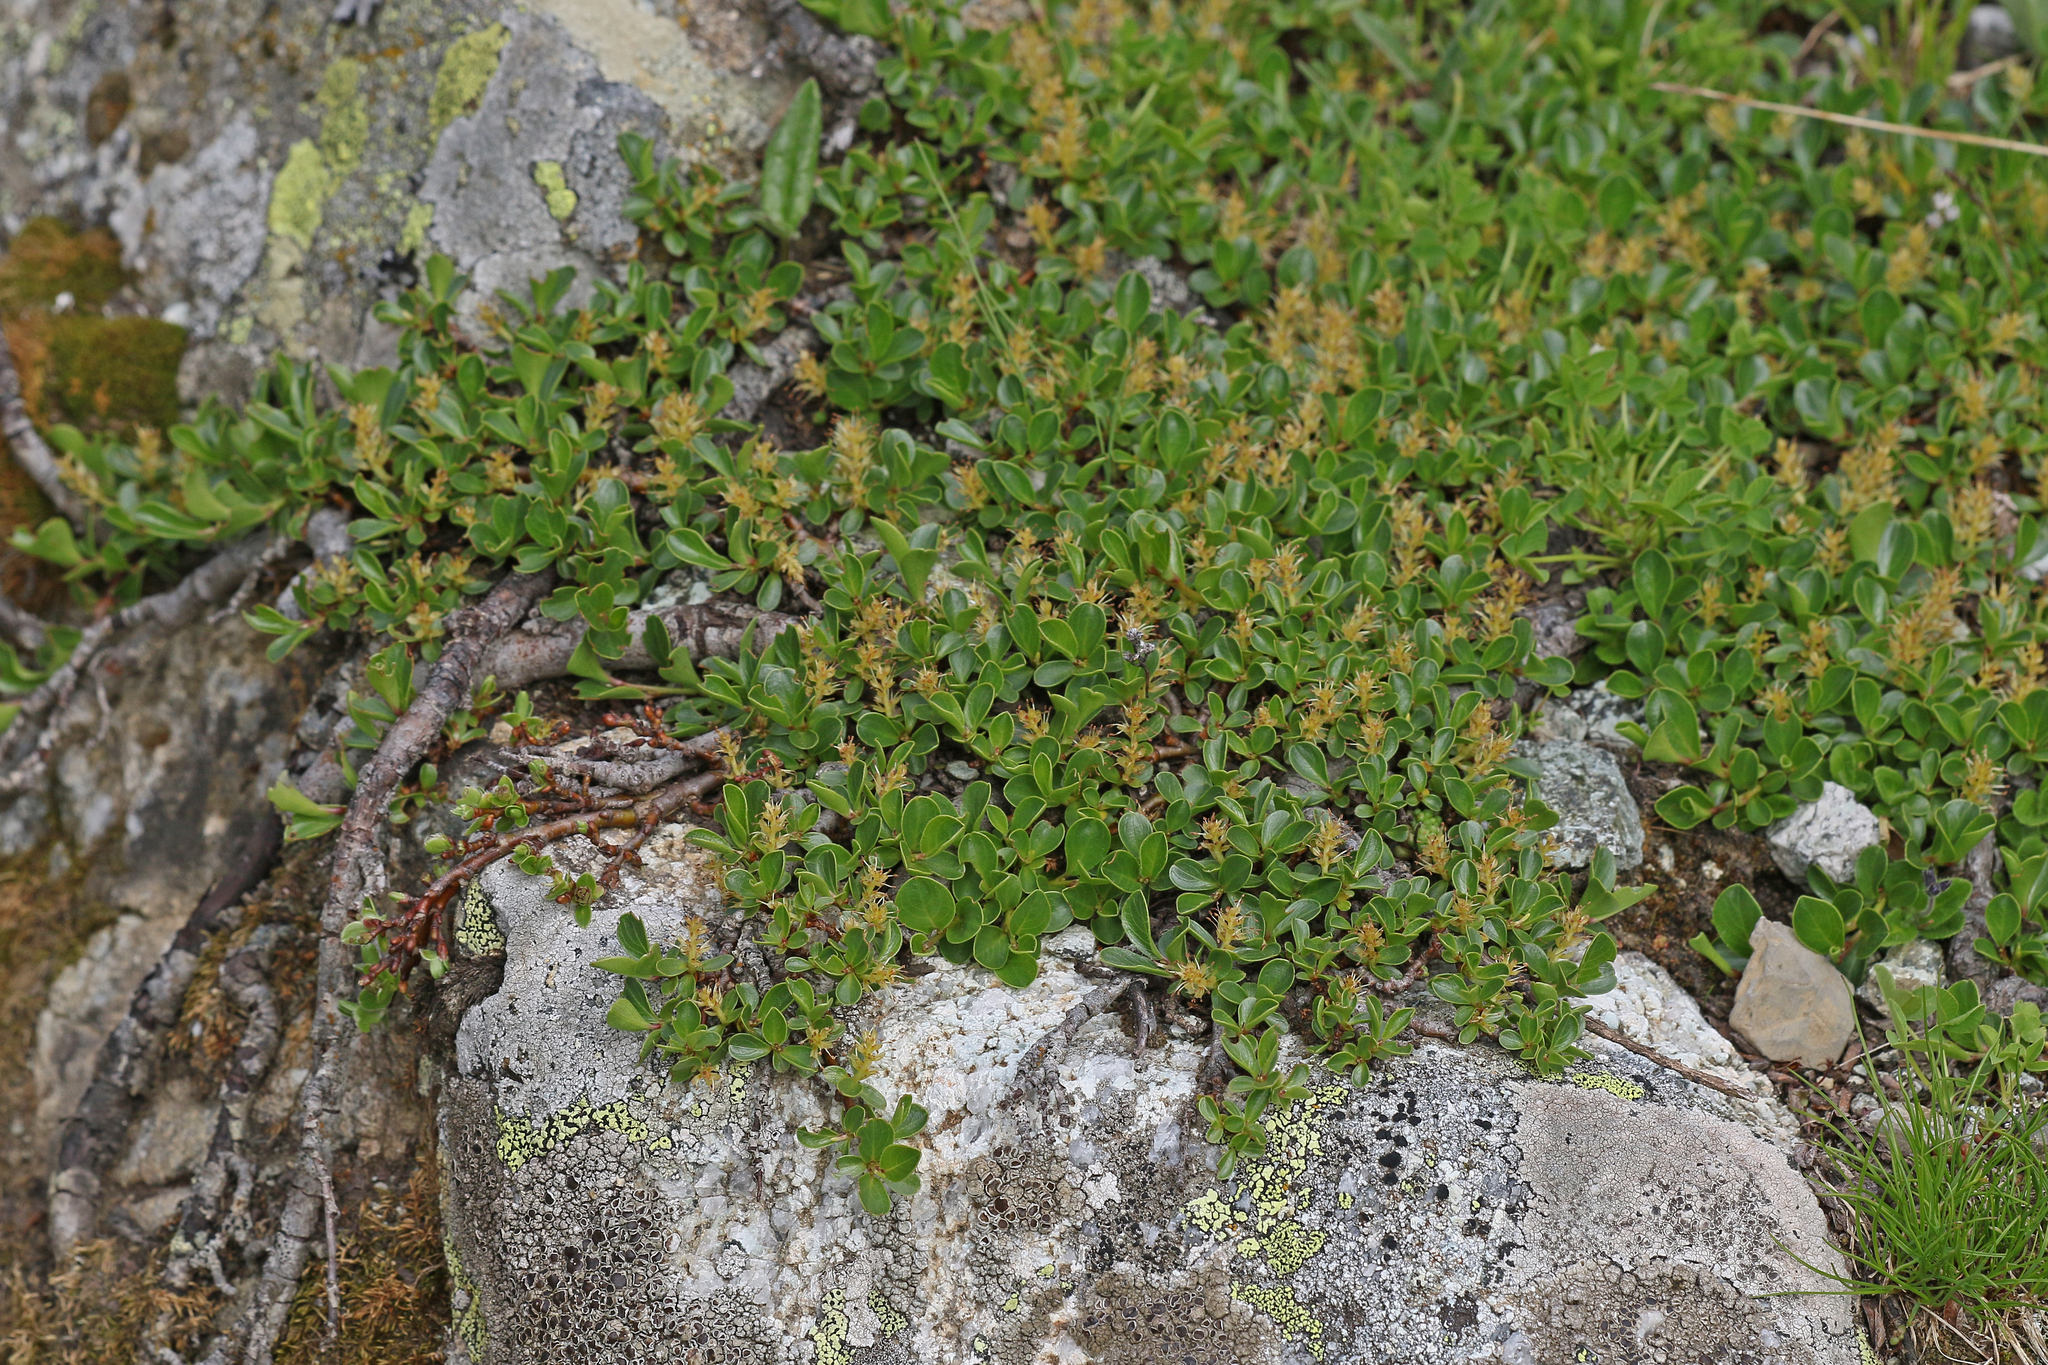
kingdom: Plantae
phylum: Tracheophyta
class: Magnoliopsida
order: Malpighiales
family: Salicaceae
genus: Salix
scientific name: Salix retusa
